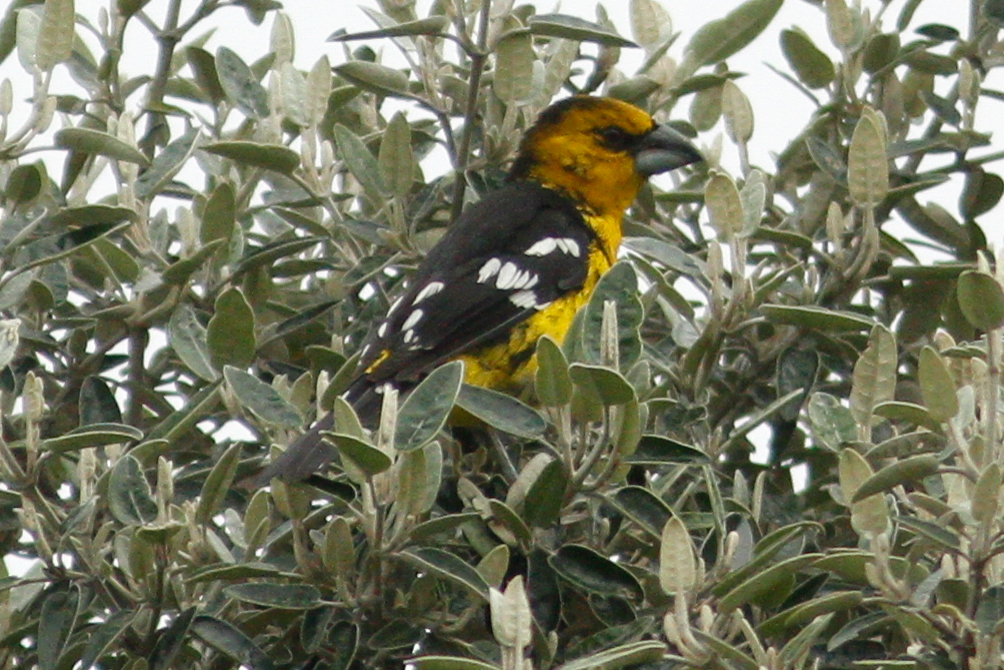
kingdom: Animalia
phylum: Chordata
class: Aves
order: Passeriformes
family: Cardinalidae
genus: Pheucticus
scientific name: Pheucticus aureoventris
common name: Black-backed grosbeak
